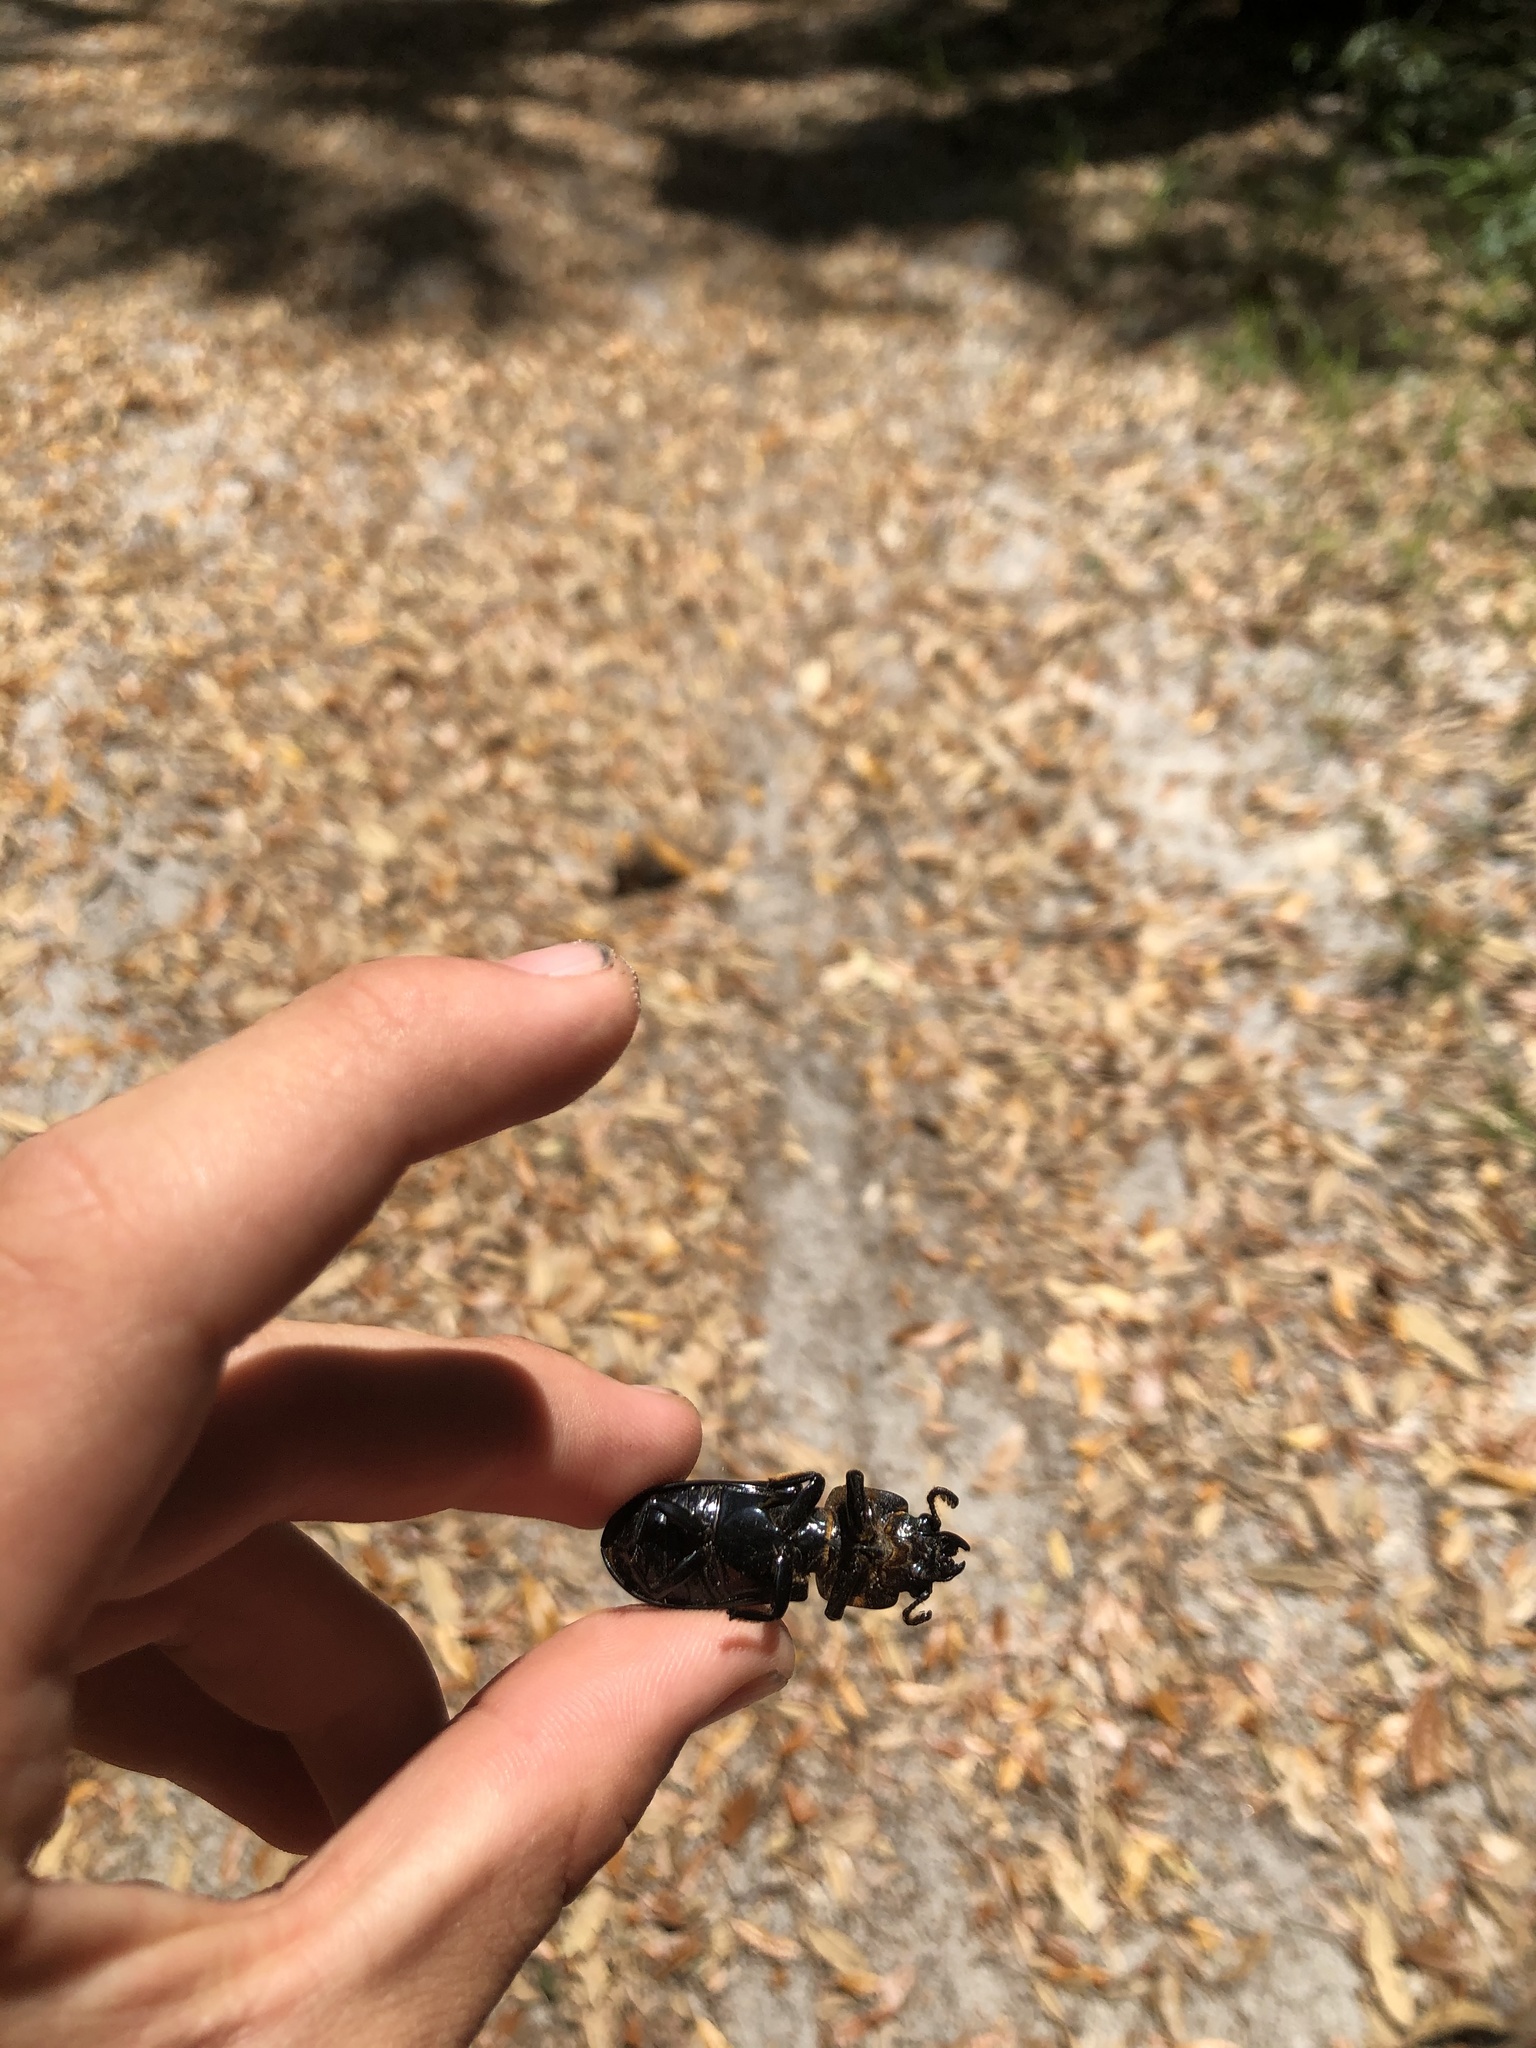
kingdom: Animalia
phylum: Arthropoda
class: Insecta
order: Coleoptera
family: Passalidae
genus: Odontotaenius
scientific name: Odontotaenius disjunctus
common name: Patent leather beetle
